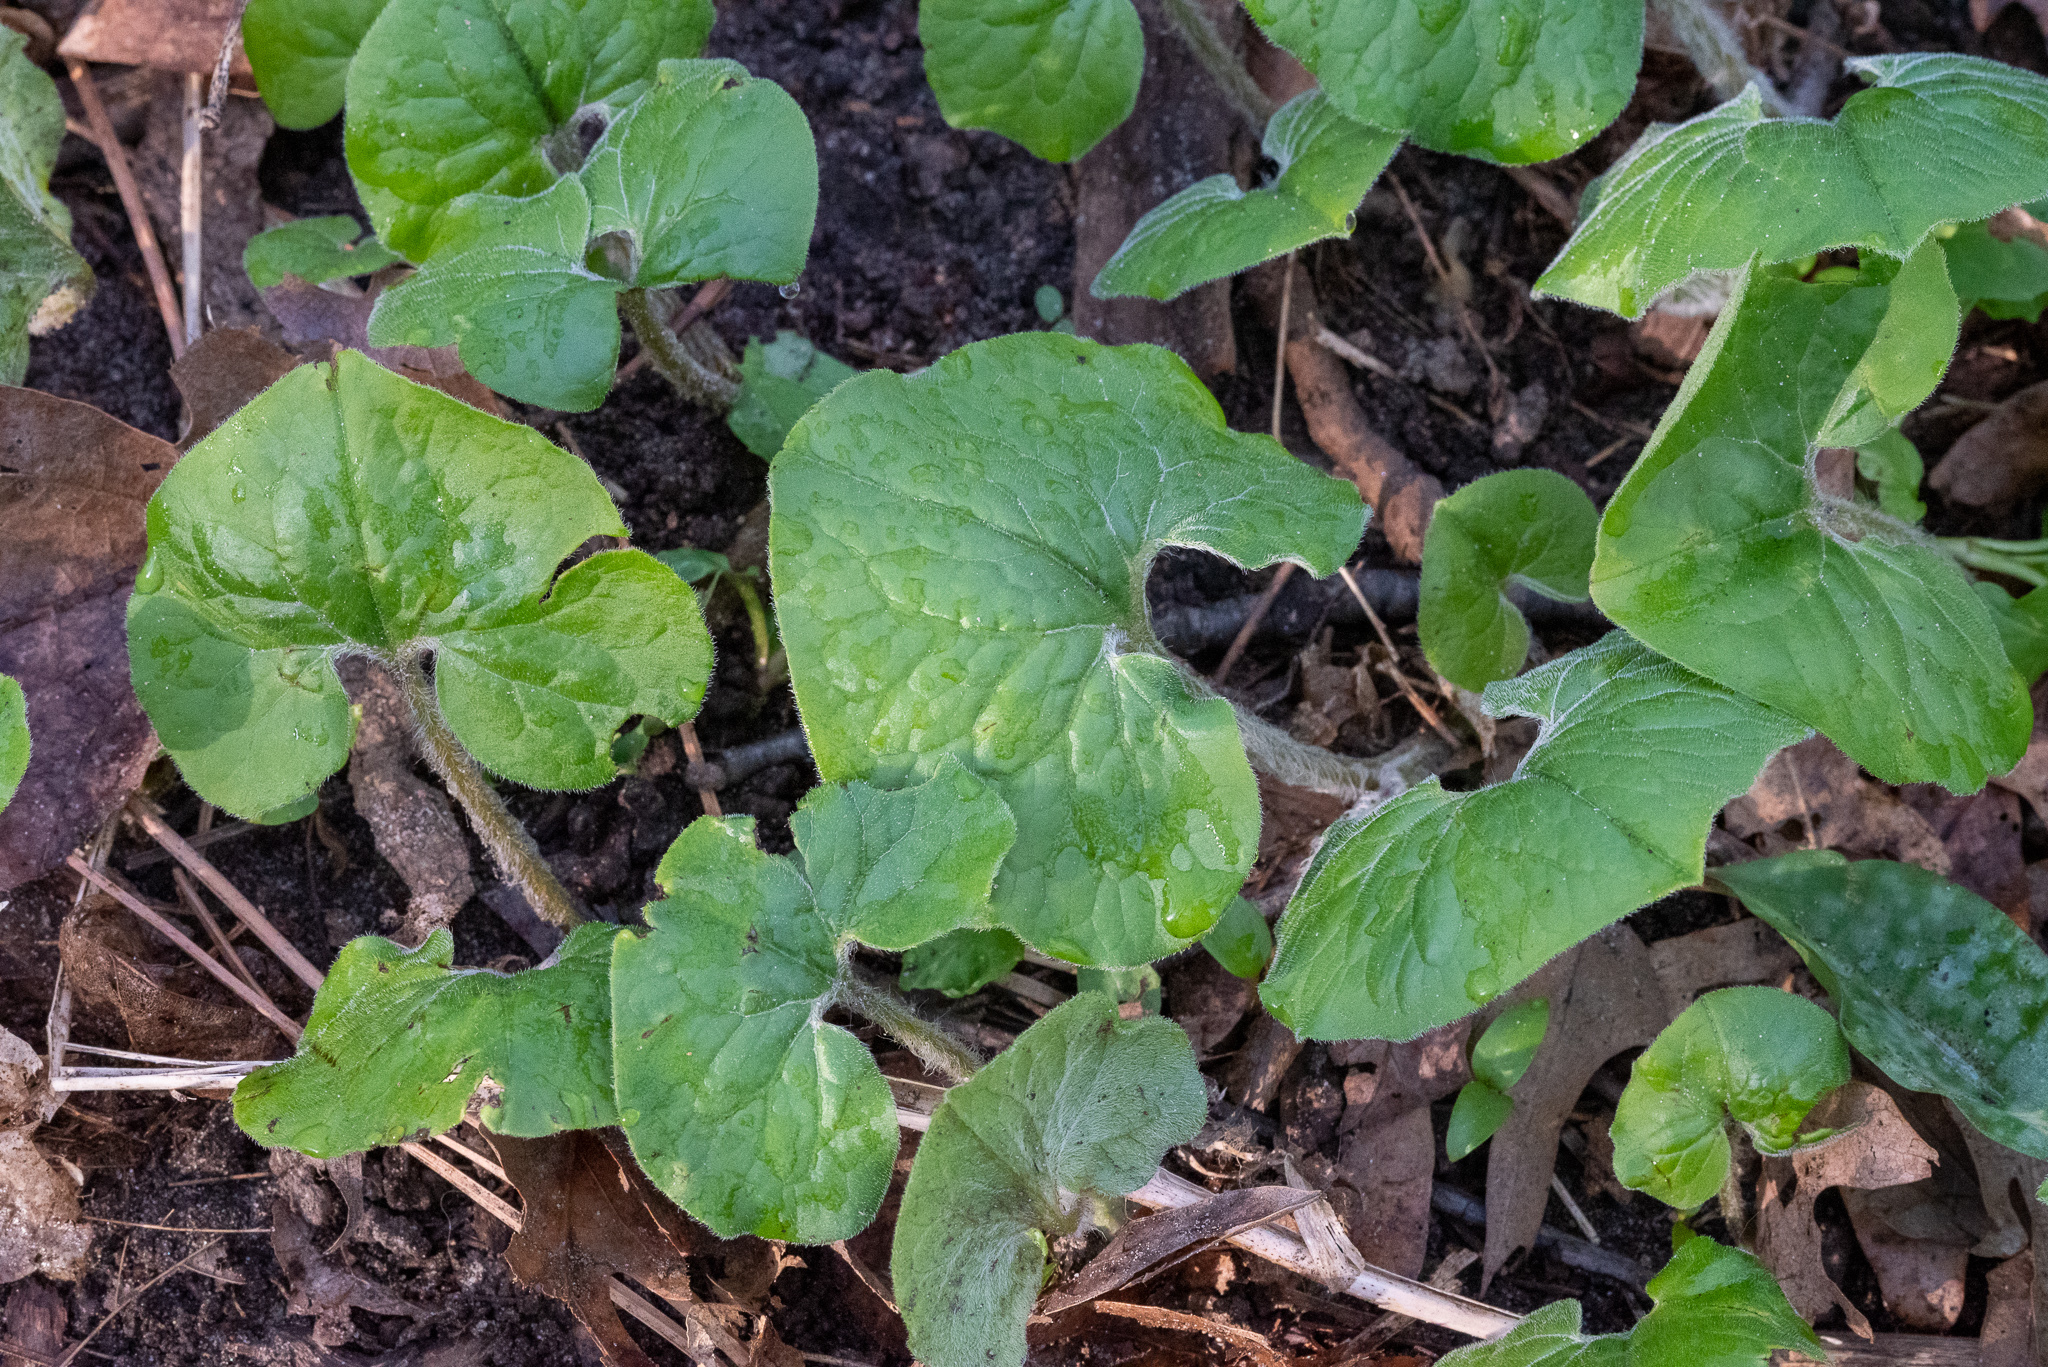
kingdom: Plantae
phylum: Tracheophyta
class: Magnoliopsida
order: Piperales
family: Aristolochiaceae
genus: Asarum
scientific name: Asarum canadense
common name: Wild ginger
